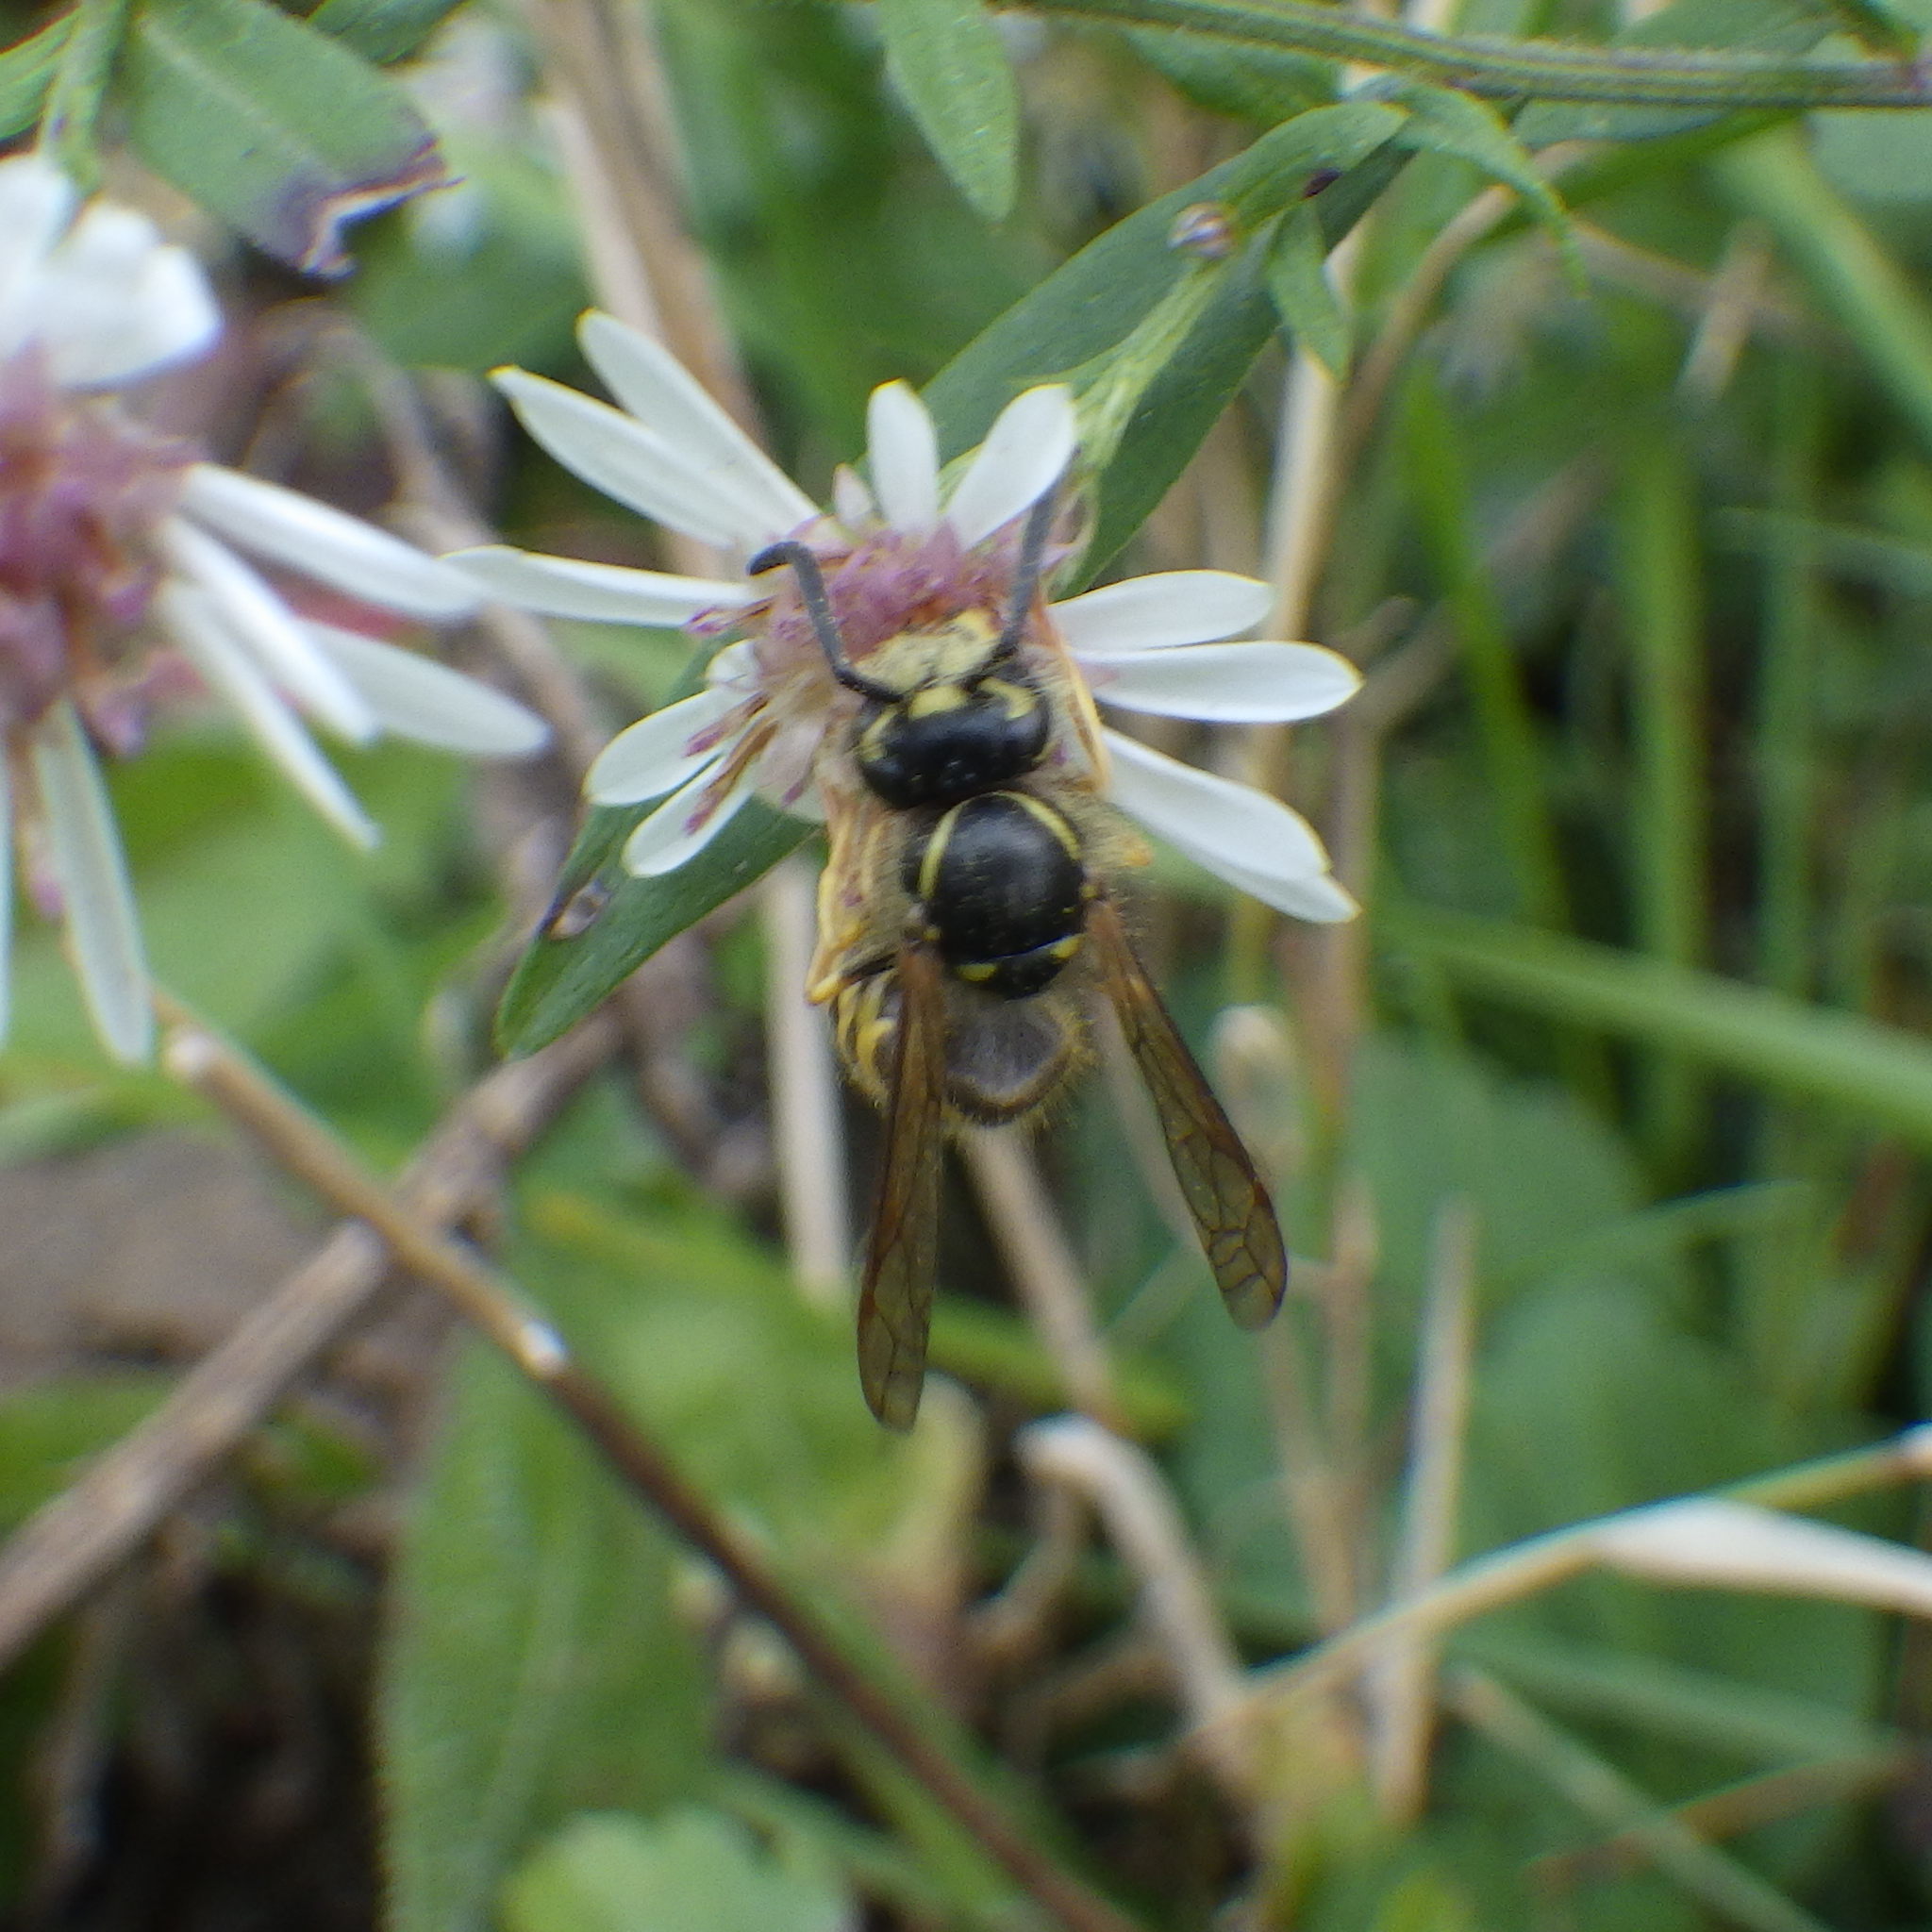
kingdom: Animalia
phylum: Arthropoda
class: Insecta
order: Hymenoptera
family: Vespidae
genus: Vespula
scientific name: Vespula alascensis
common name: Alaska yellowjacket
